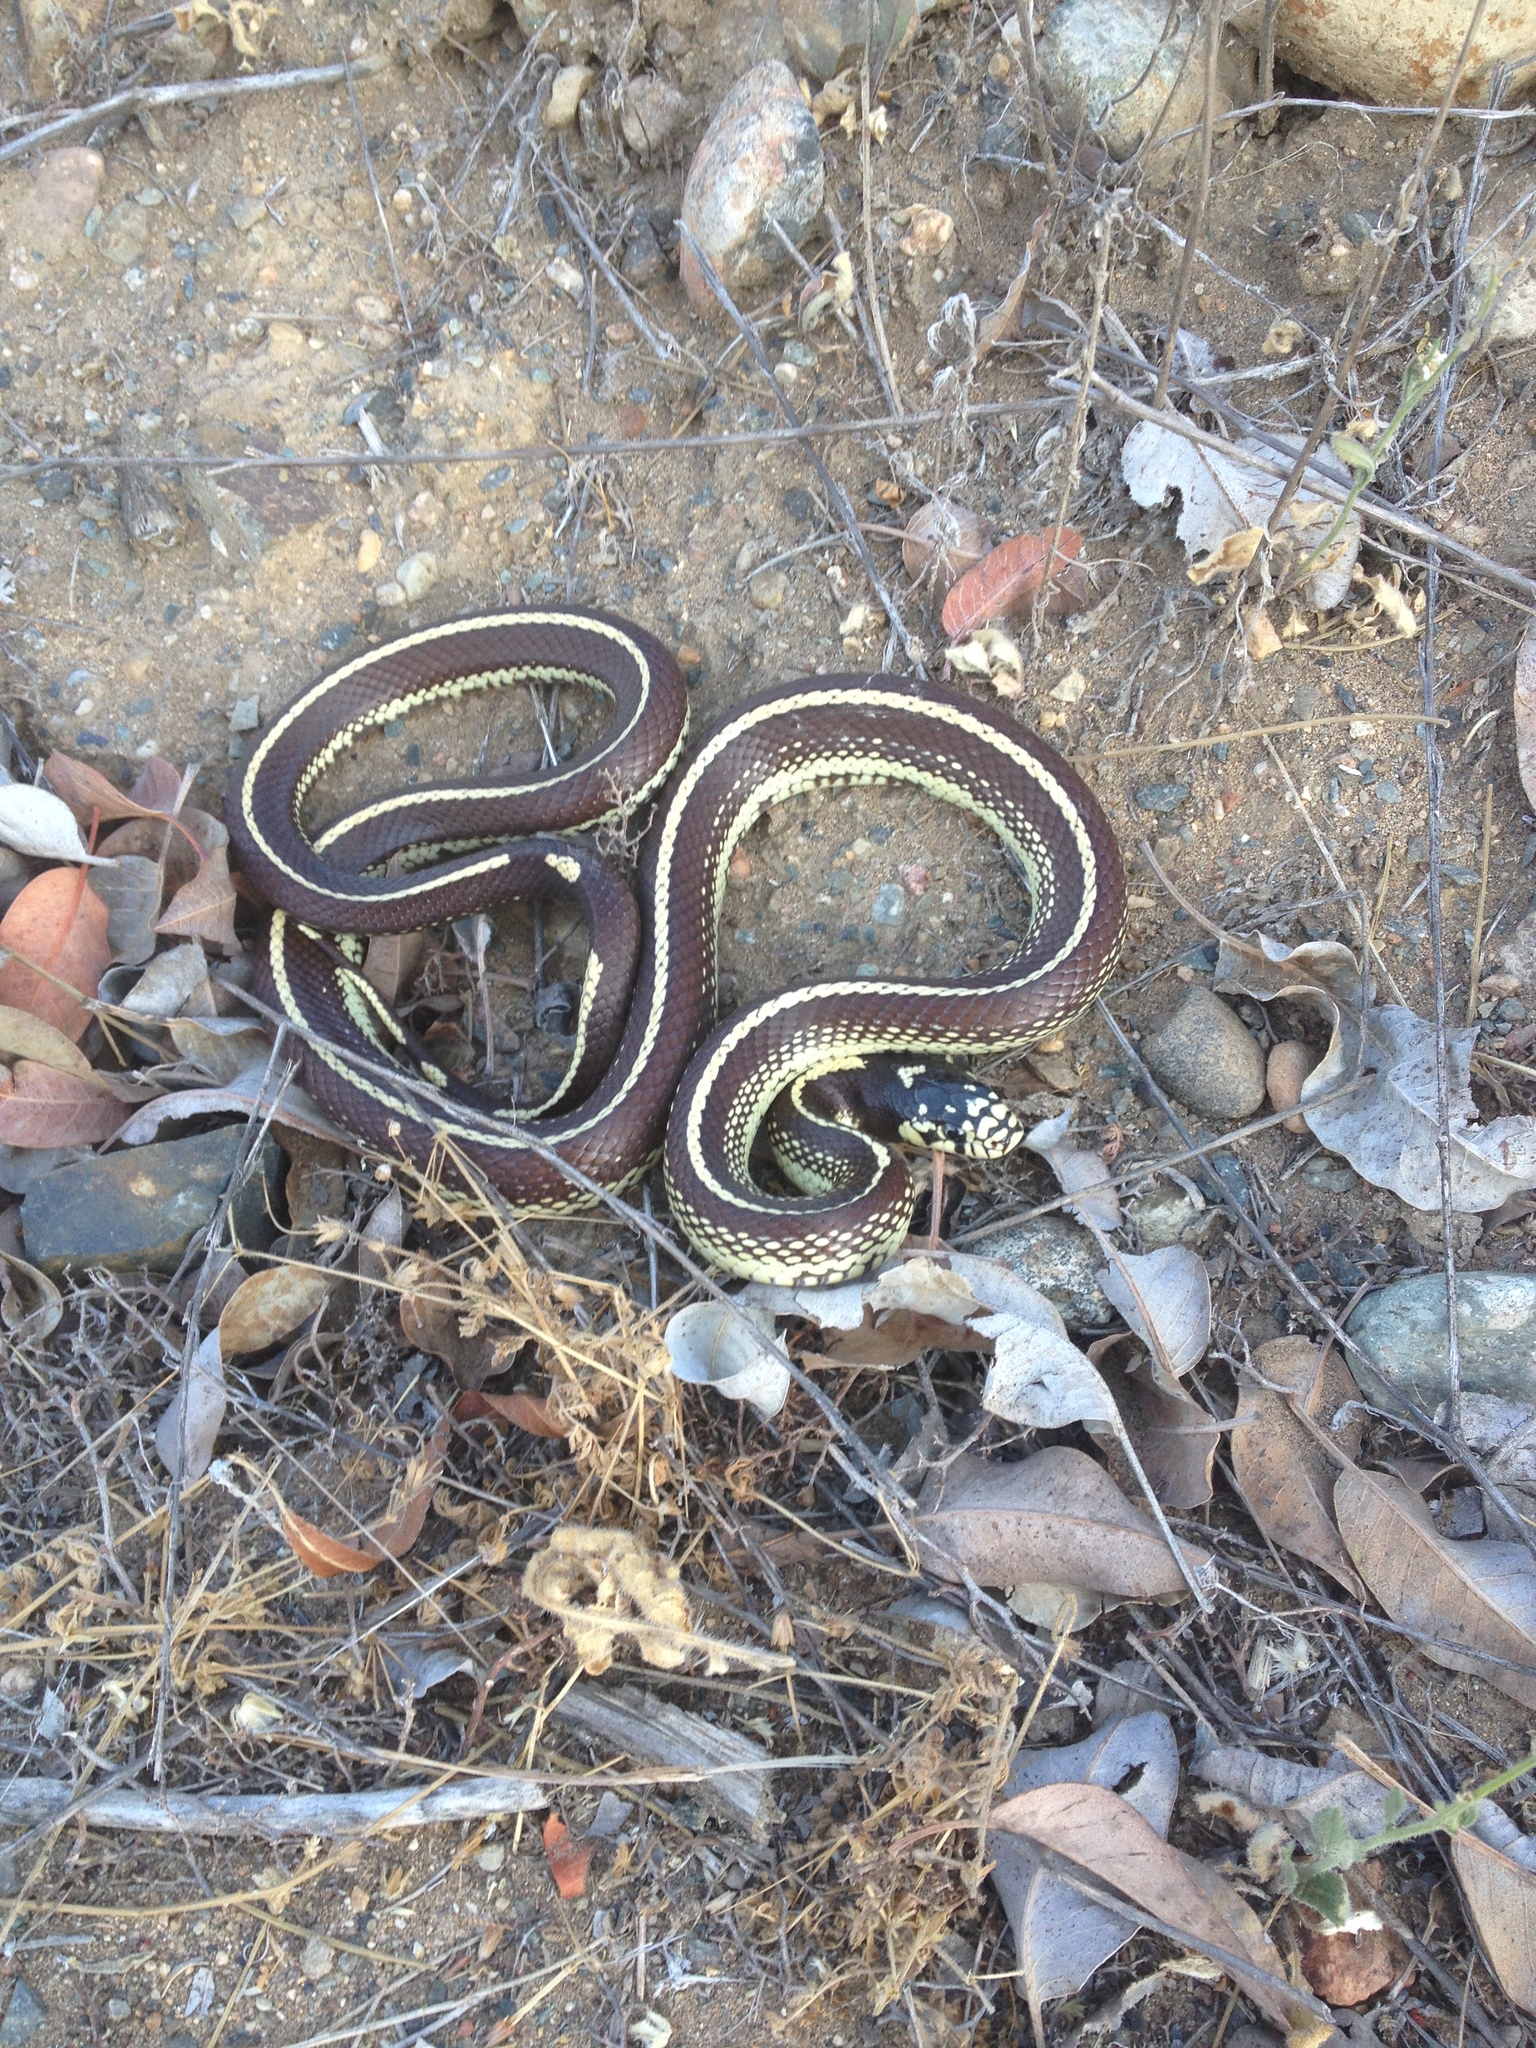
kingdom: Animalia
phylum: Chordata
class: Squamata
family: Colubridae
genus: Lampropeltis
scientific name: Lampropeltis californiae
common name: California kingsnake
